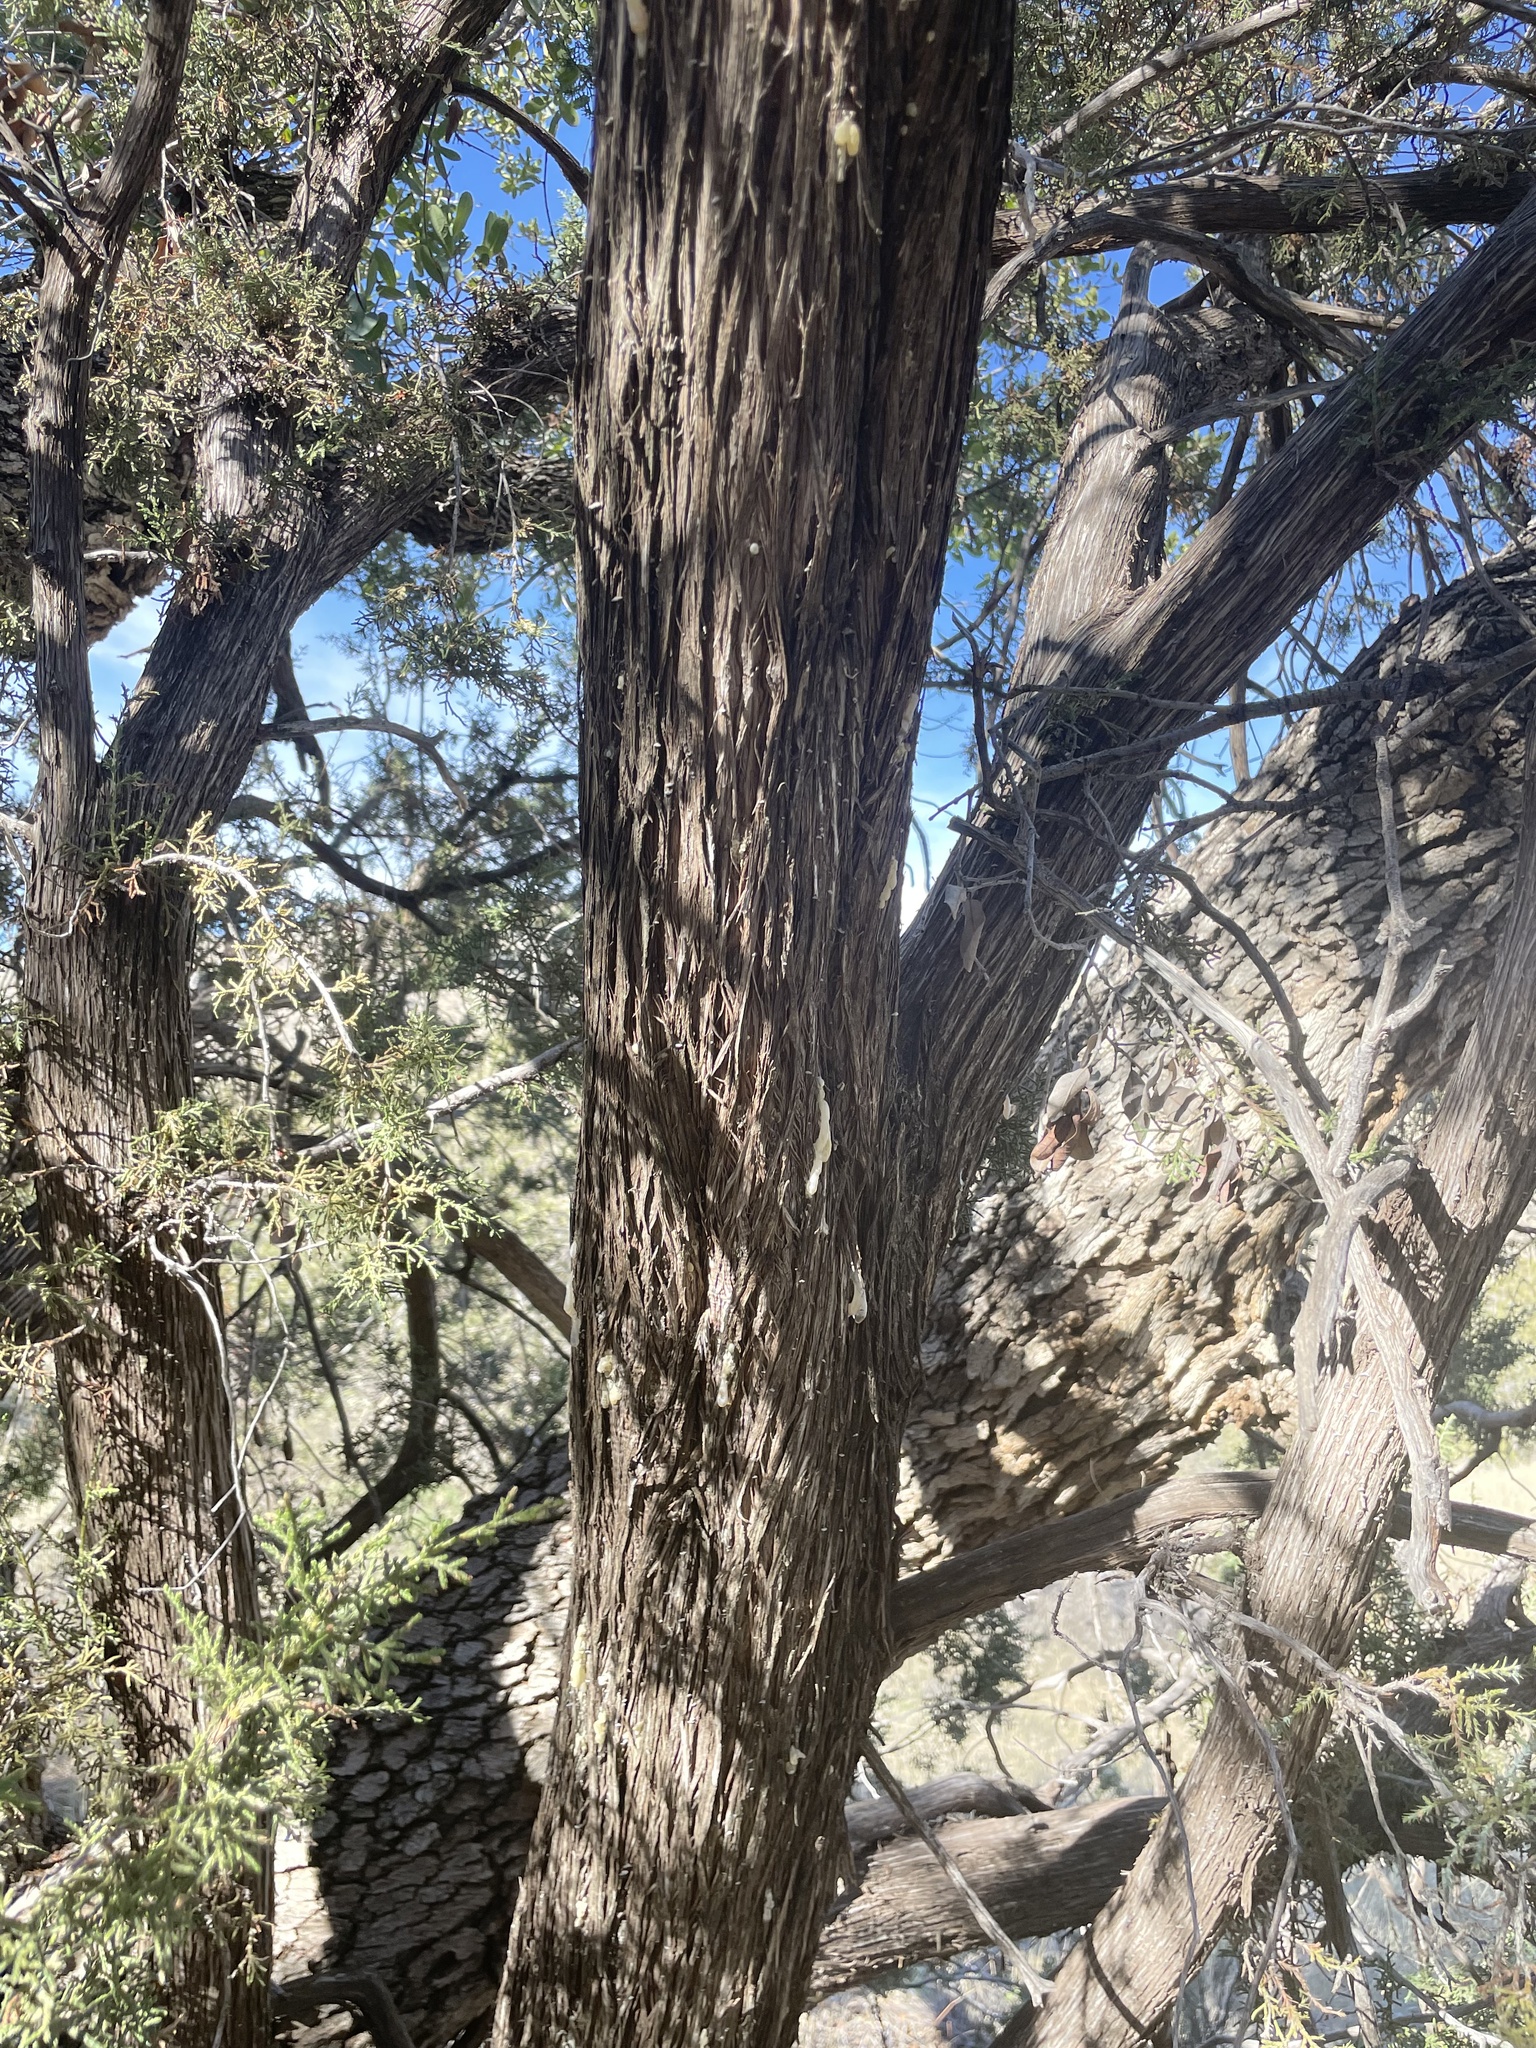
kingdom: Plantae
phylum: Tracheophyta
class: Pinopsida
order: Pinales
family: Cupressaceae
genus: Juniperus
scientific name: Juniperus arizonica
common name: Arizona juniper
